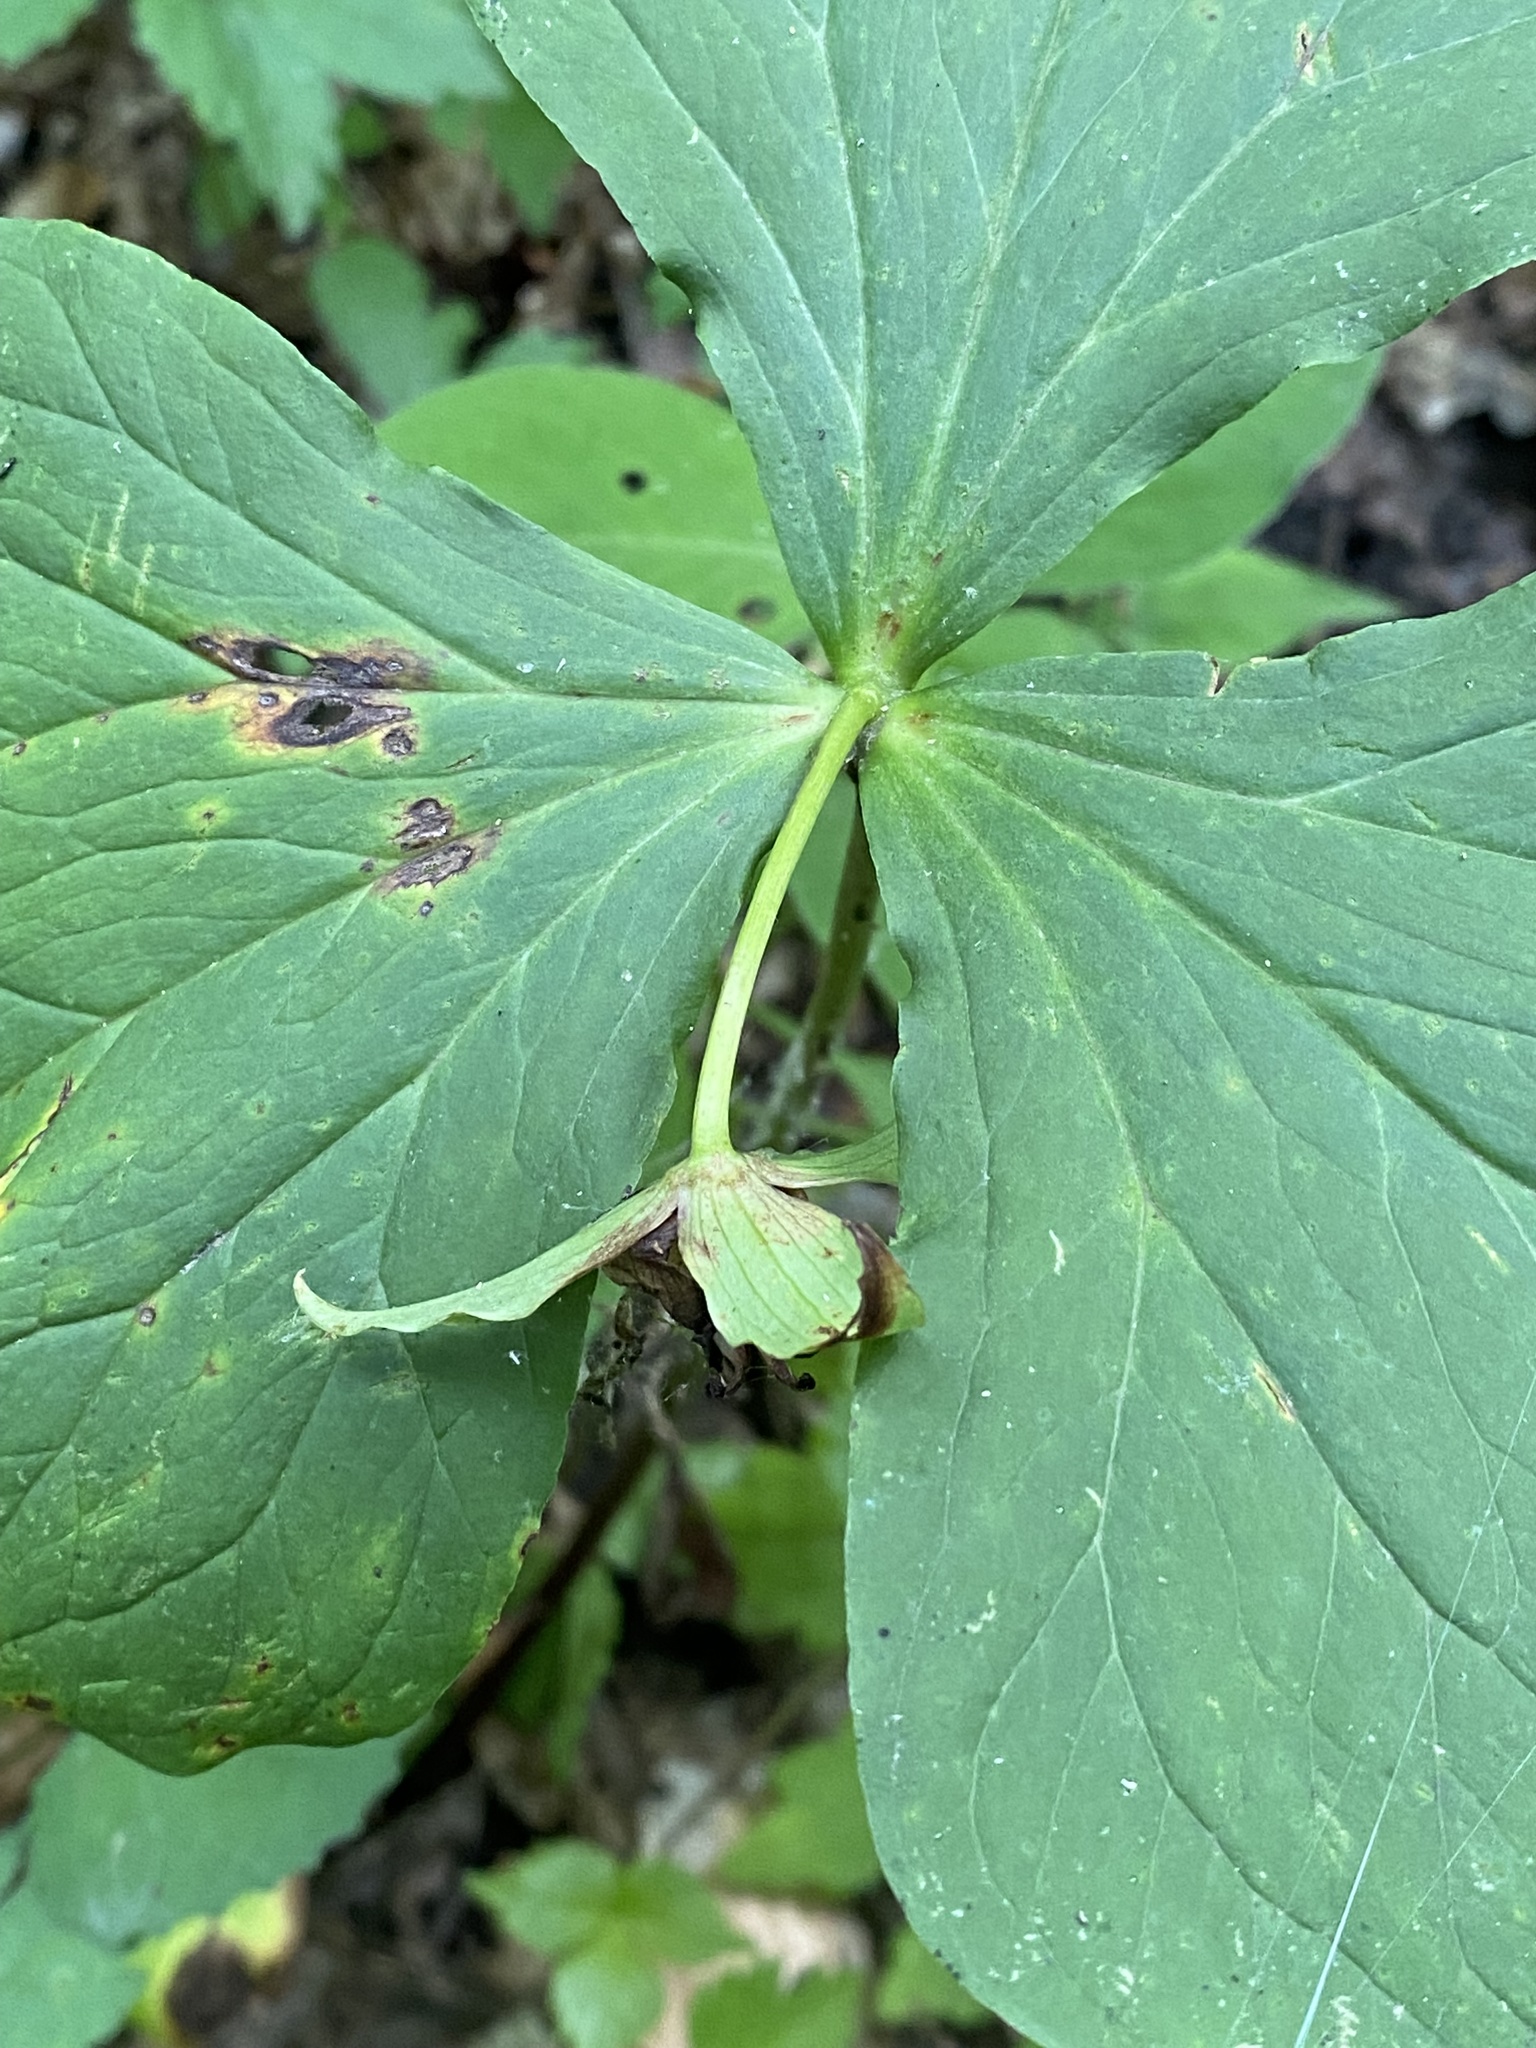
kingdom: Plantae
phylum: Tracheophyta
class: Liliopsida
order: Liliales
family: Melanthiaceae
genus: Trillium
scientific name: Trillium flexipes
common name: Drooping trillium
